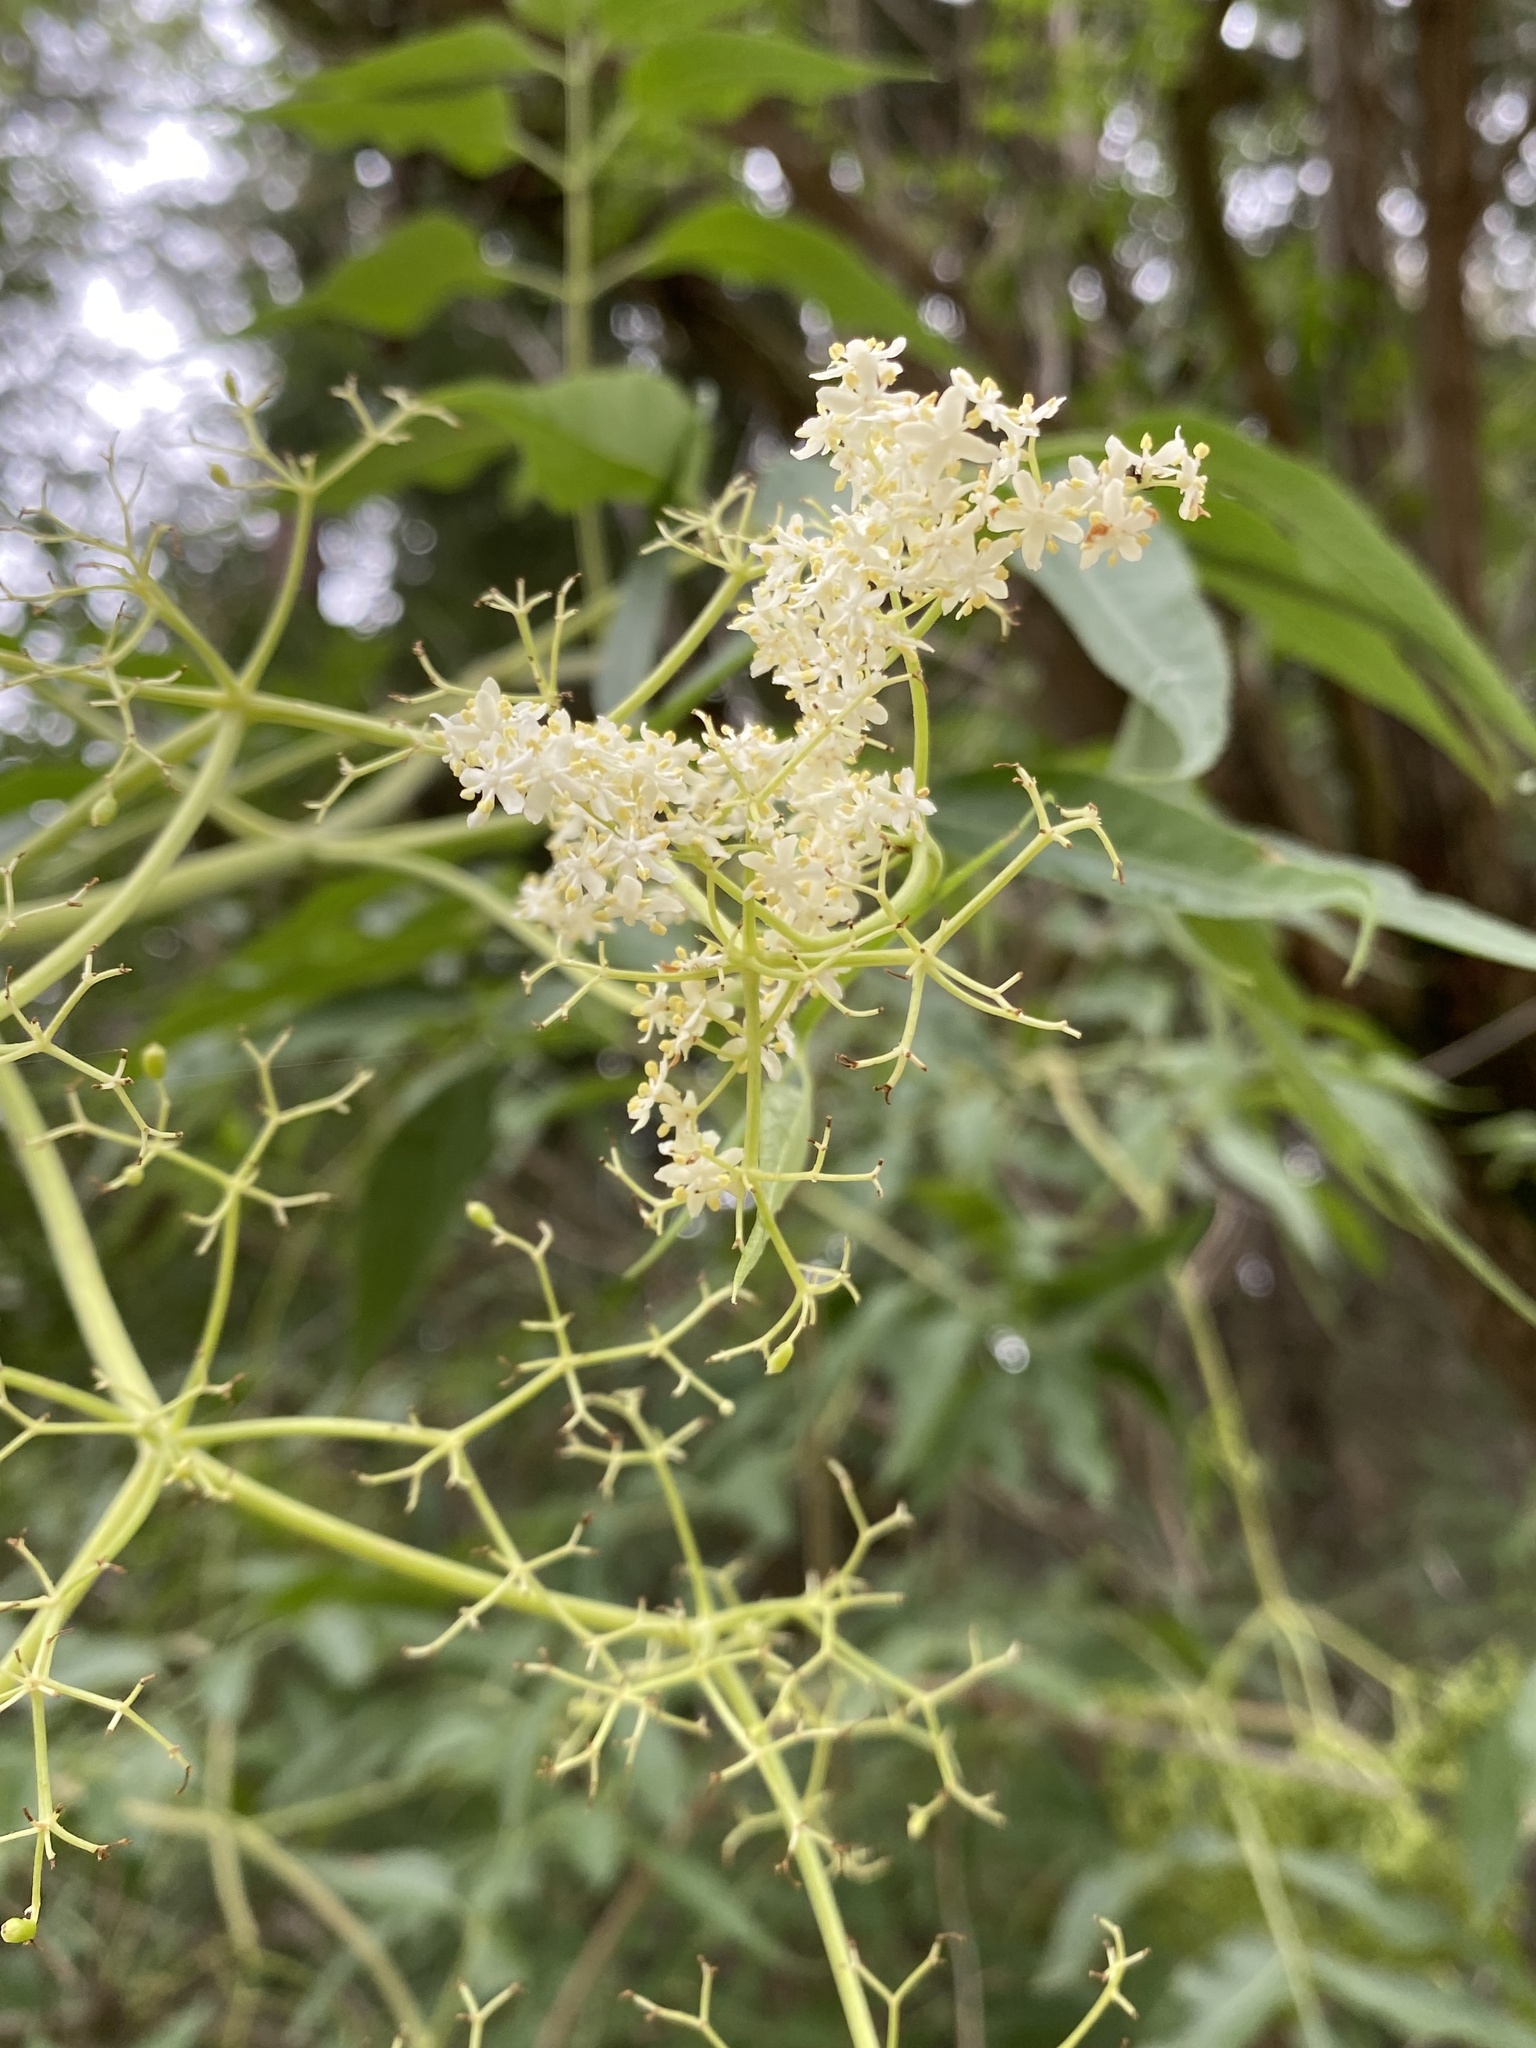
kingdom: Plantae
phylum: Tracheophyta
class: Magnoliopsida
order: Dipsacales
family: Viburnaceae
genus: Sambucus
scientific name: Sambucus cerulea
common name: Blue elder
